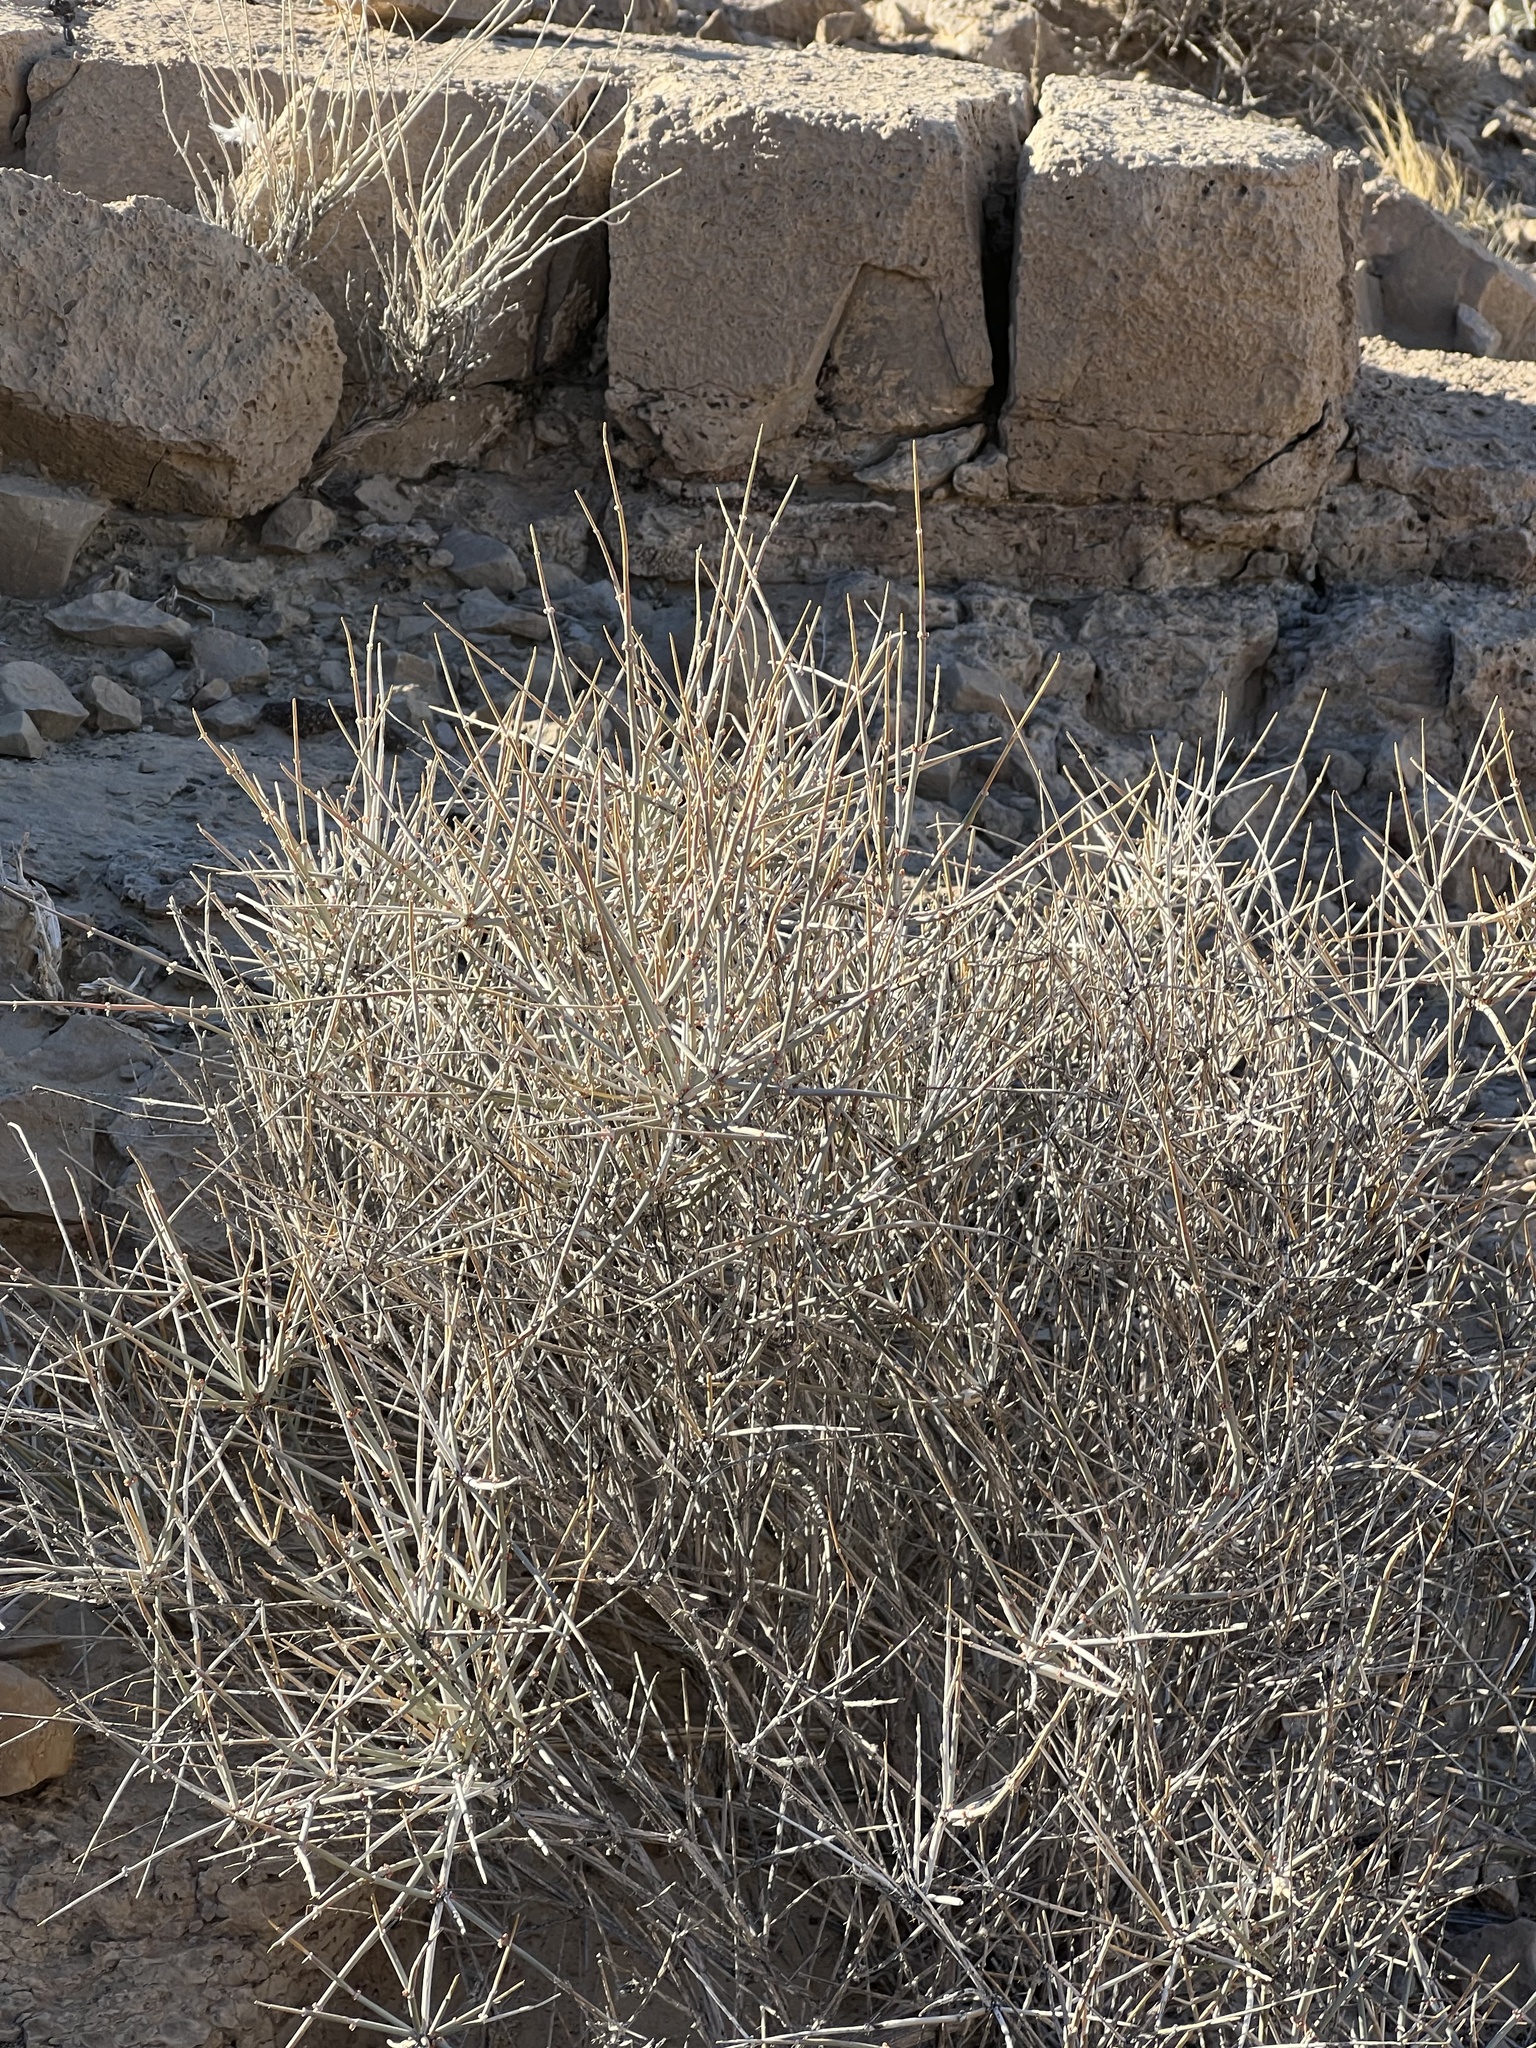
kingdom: Plantae
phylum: Tracheophyta
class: Gnetopsida
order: Ephedrales
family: Ephedraceae
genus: Ephedra
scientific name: Ephedra nevadensis
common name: Gray ephedra
